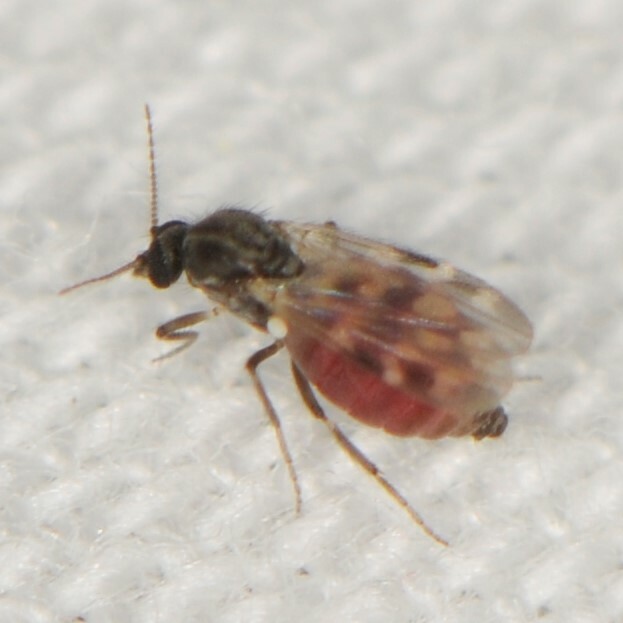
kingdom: Animalia
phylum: Arthropoda
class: Insecta
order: Diptera
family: Ceratopogonidae
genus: Culicoides
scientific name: Culicoides
